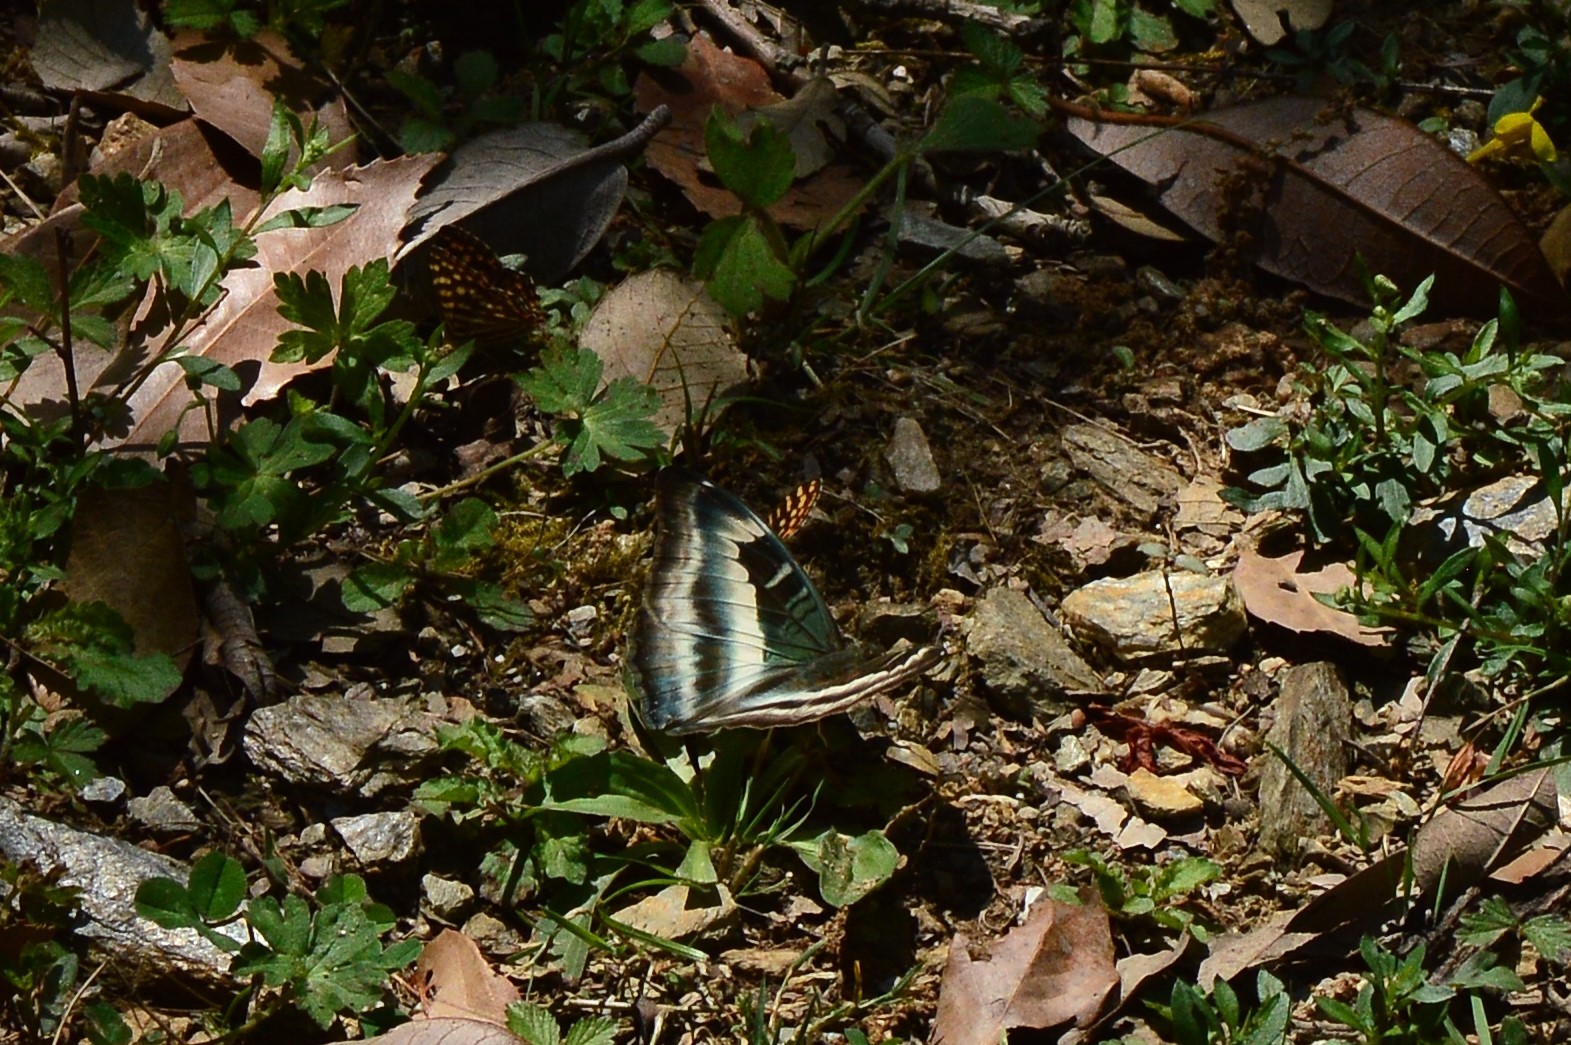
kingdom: Animalia
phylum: Arthropoda
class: Insecta
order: Lepidoptera
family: Nymphalidae
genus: Limenitis
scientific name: Limenitis Auzakia danava
